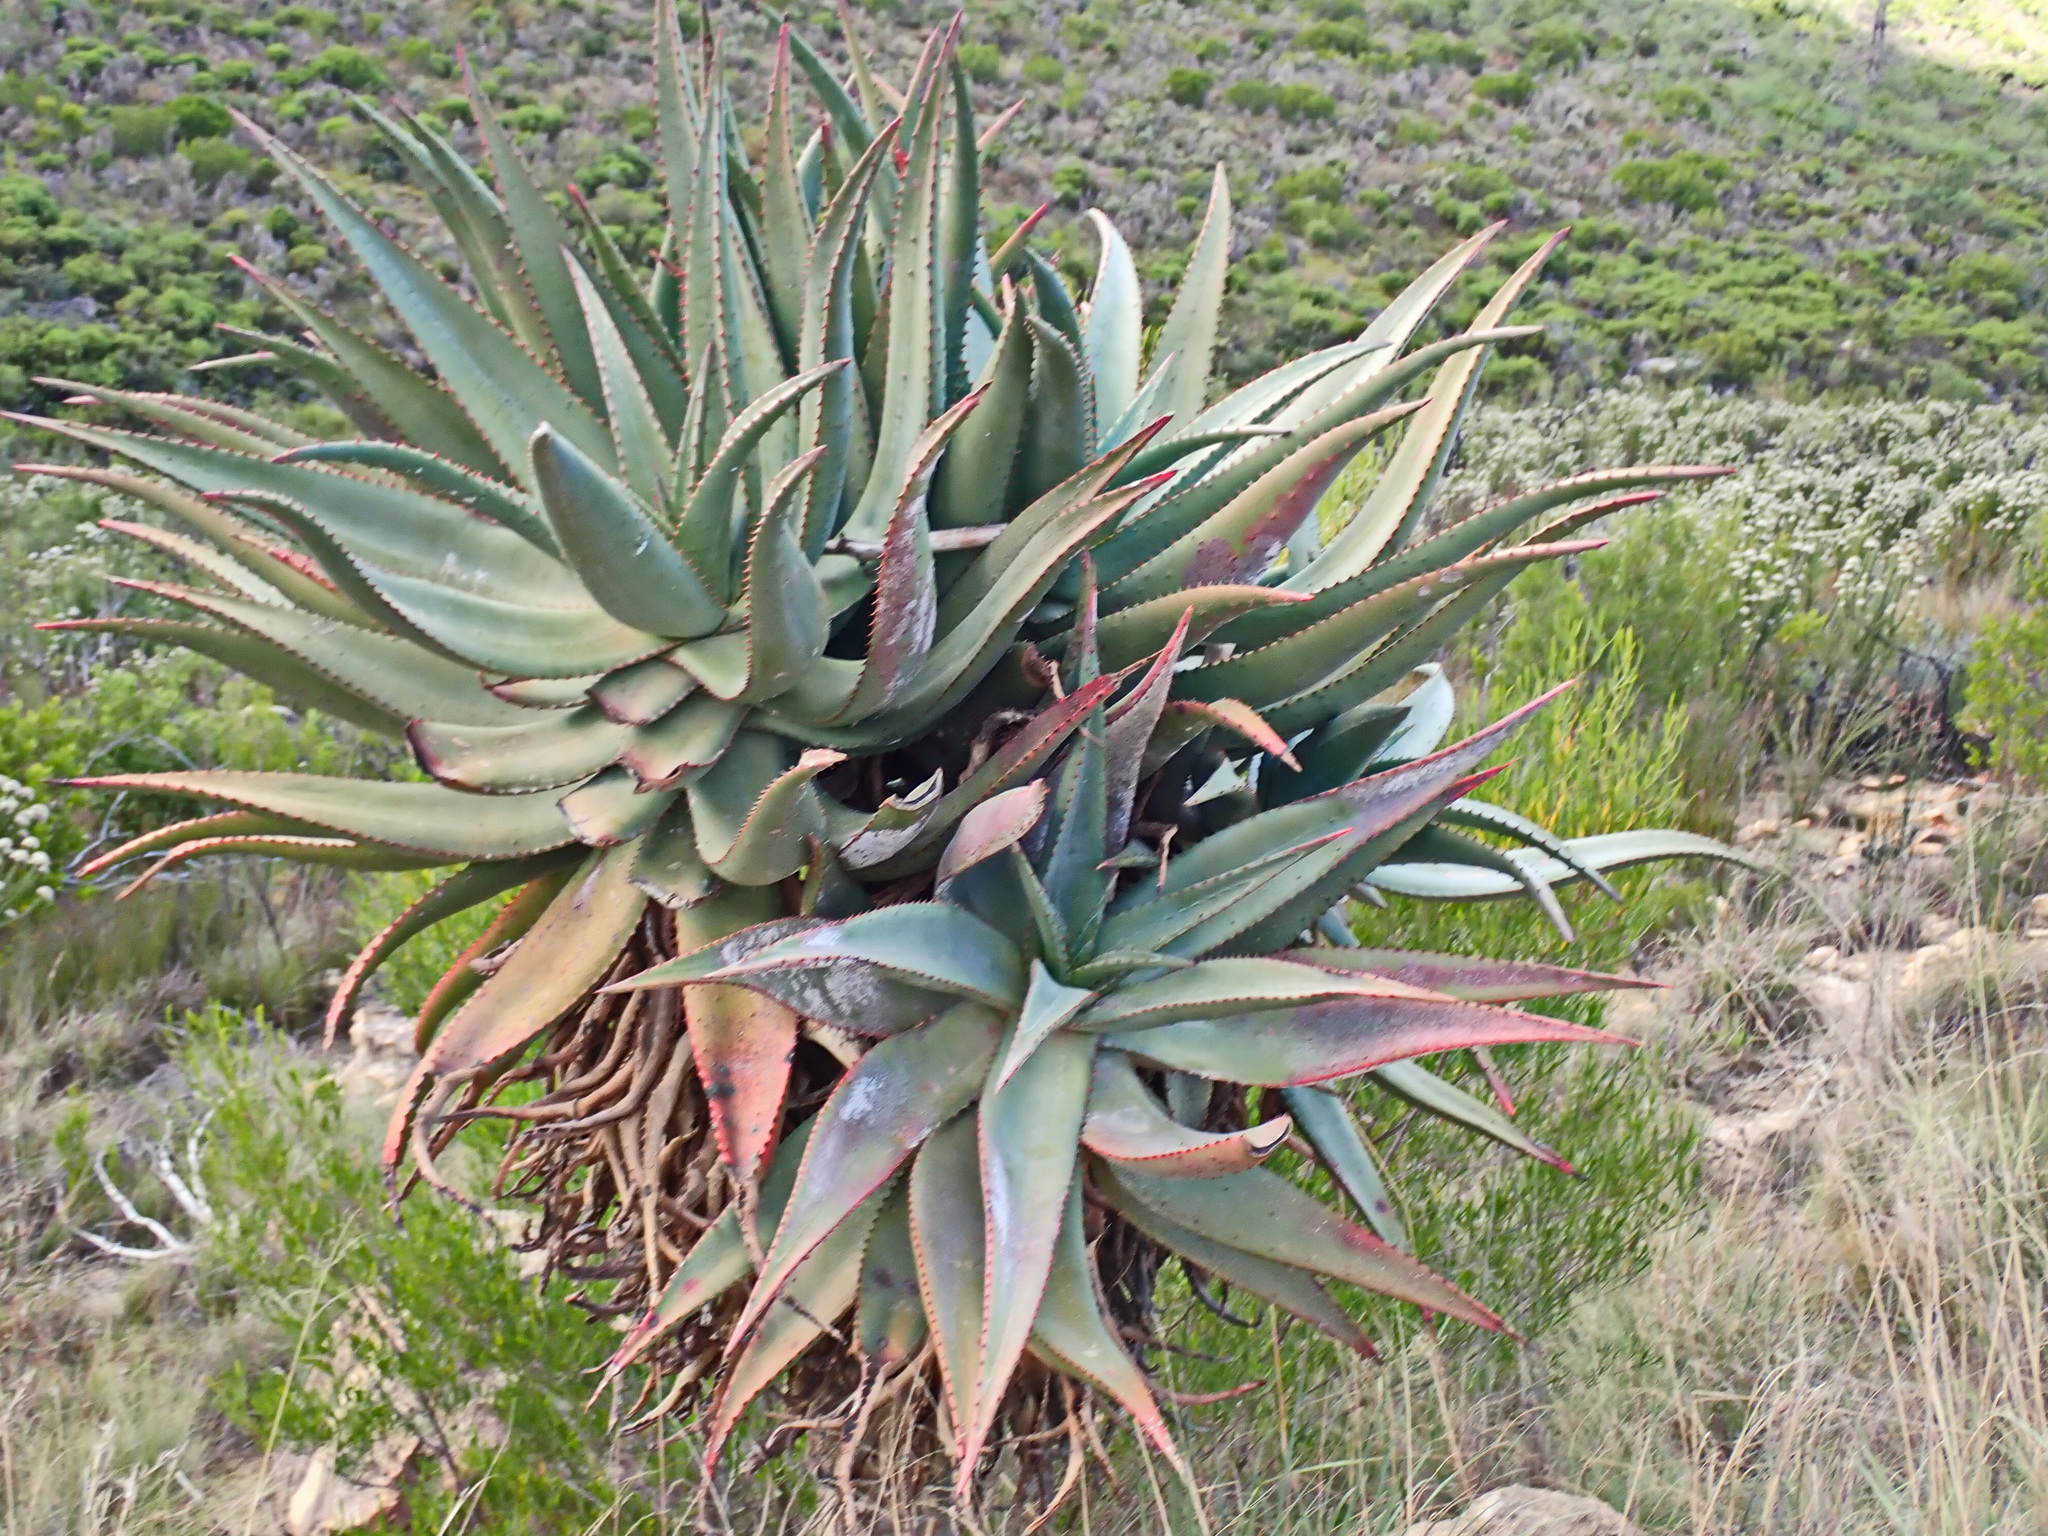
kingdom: Plantae
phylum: Tracheophyta
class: Liliopsida
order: Asparagales
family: Asphodelaceae
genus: Aloe
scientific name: Aloe ferox
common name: Bitter aloe
